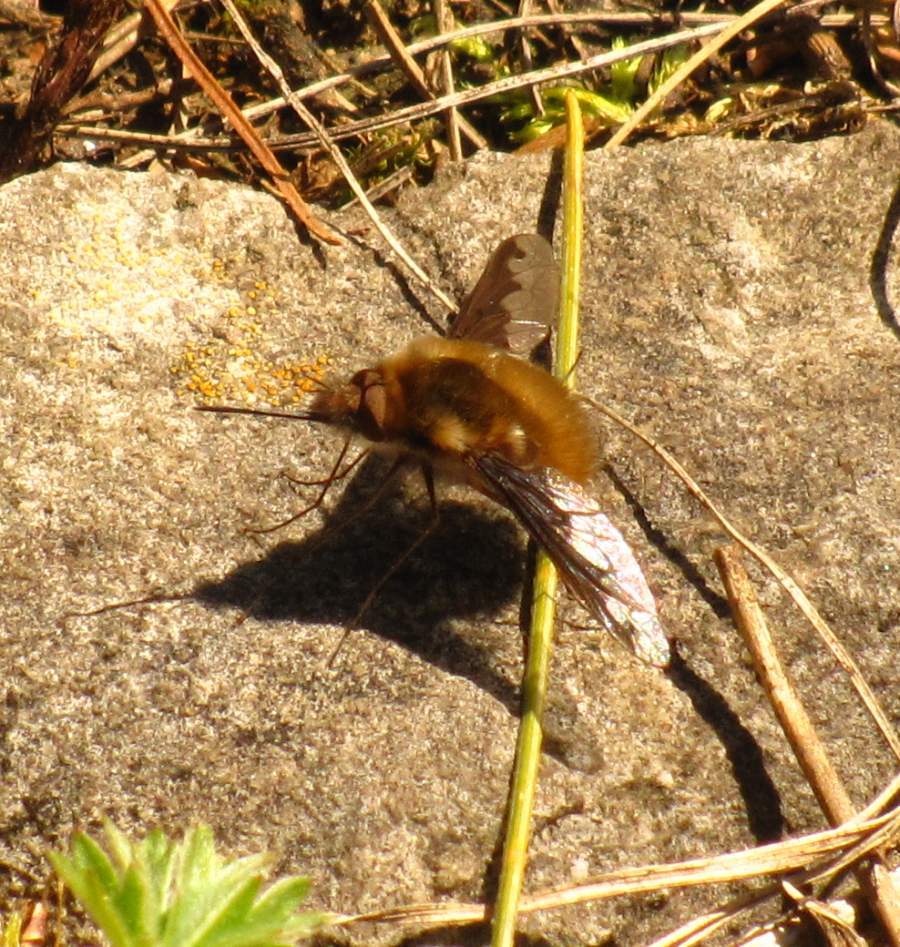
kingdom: Animalia
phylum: Arthropoda
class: Insecta
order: Diptera
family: Bombyliidae
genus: Bombylius
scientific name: Bombylius major
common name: Bee fly
